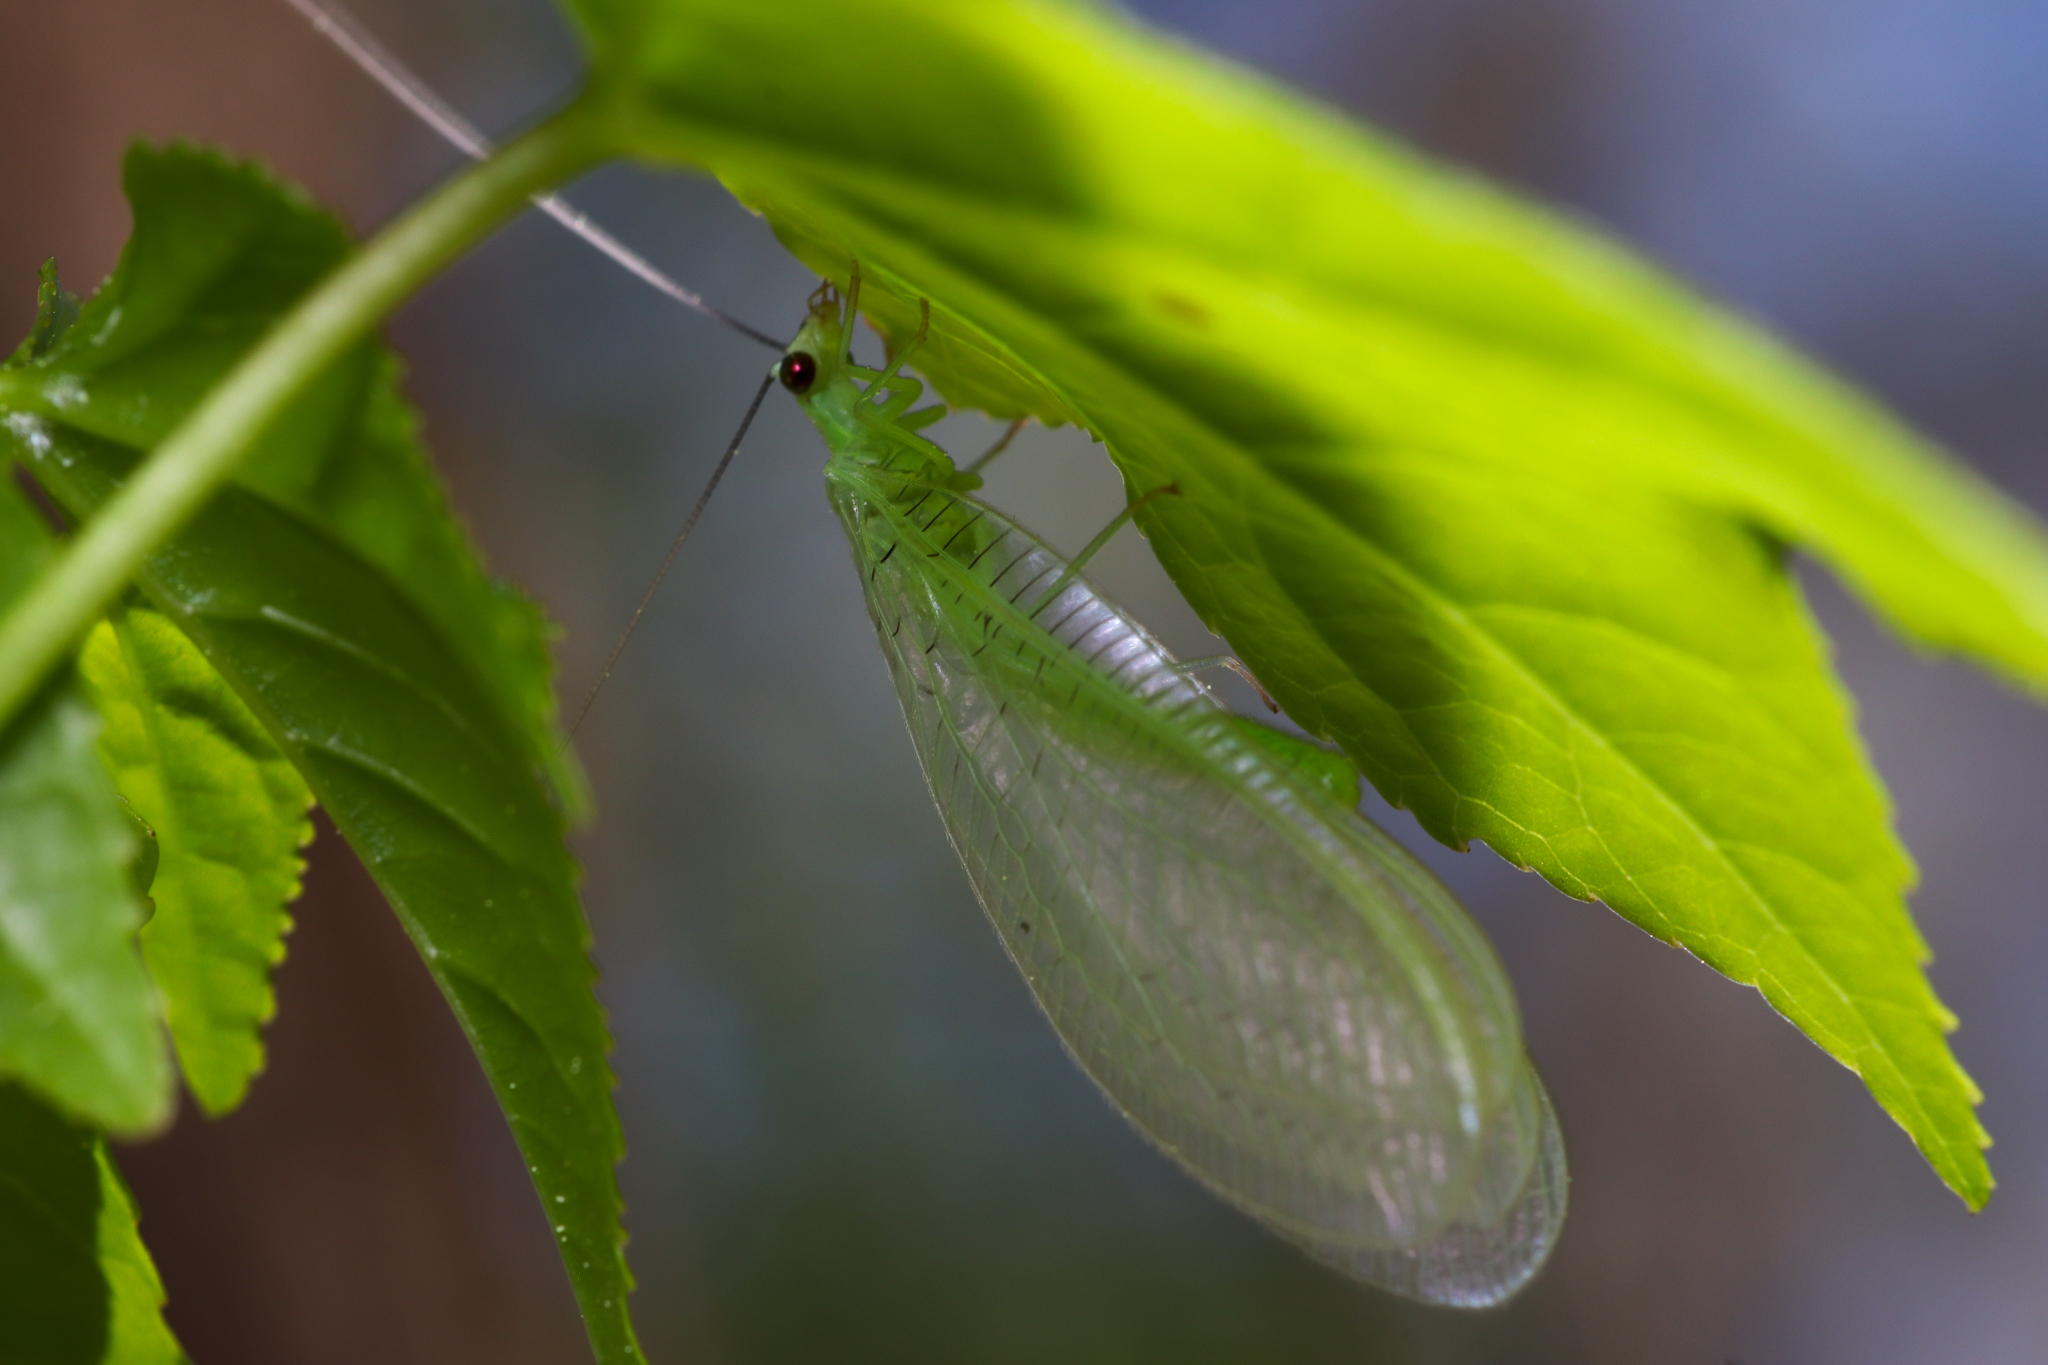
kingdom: Animalia
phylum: Arthropoda
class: Insecta
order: Neuroptera
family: Chrysopidae
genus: Chrysopa
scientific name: Chrysopa nigricornis
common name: Black-horned green lacewing
